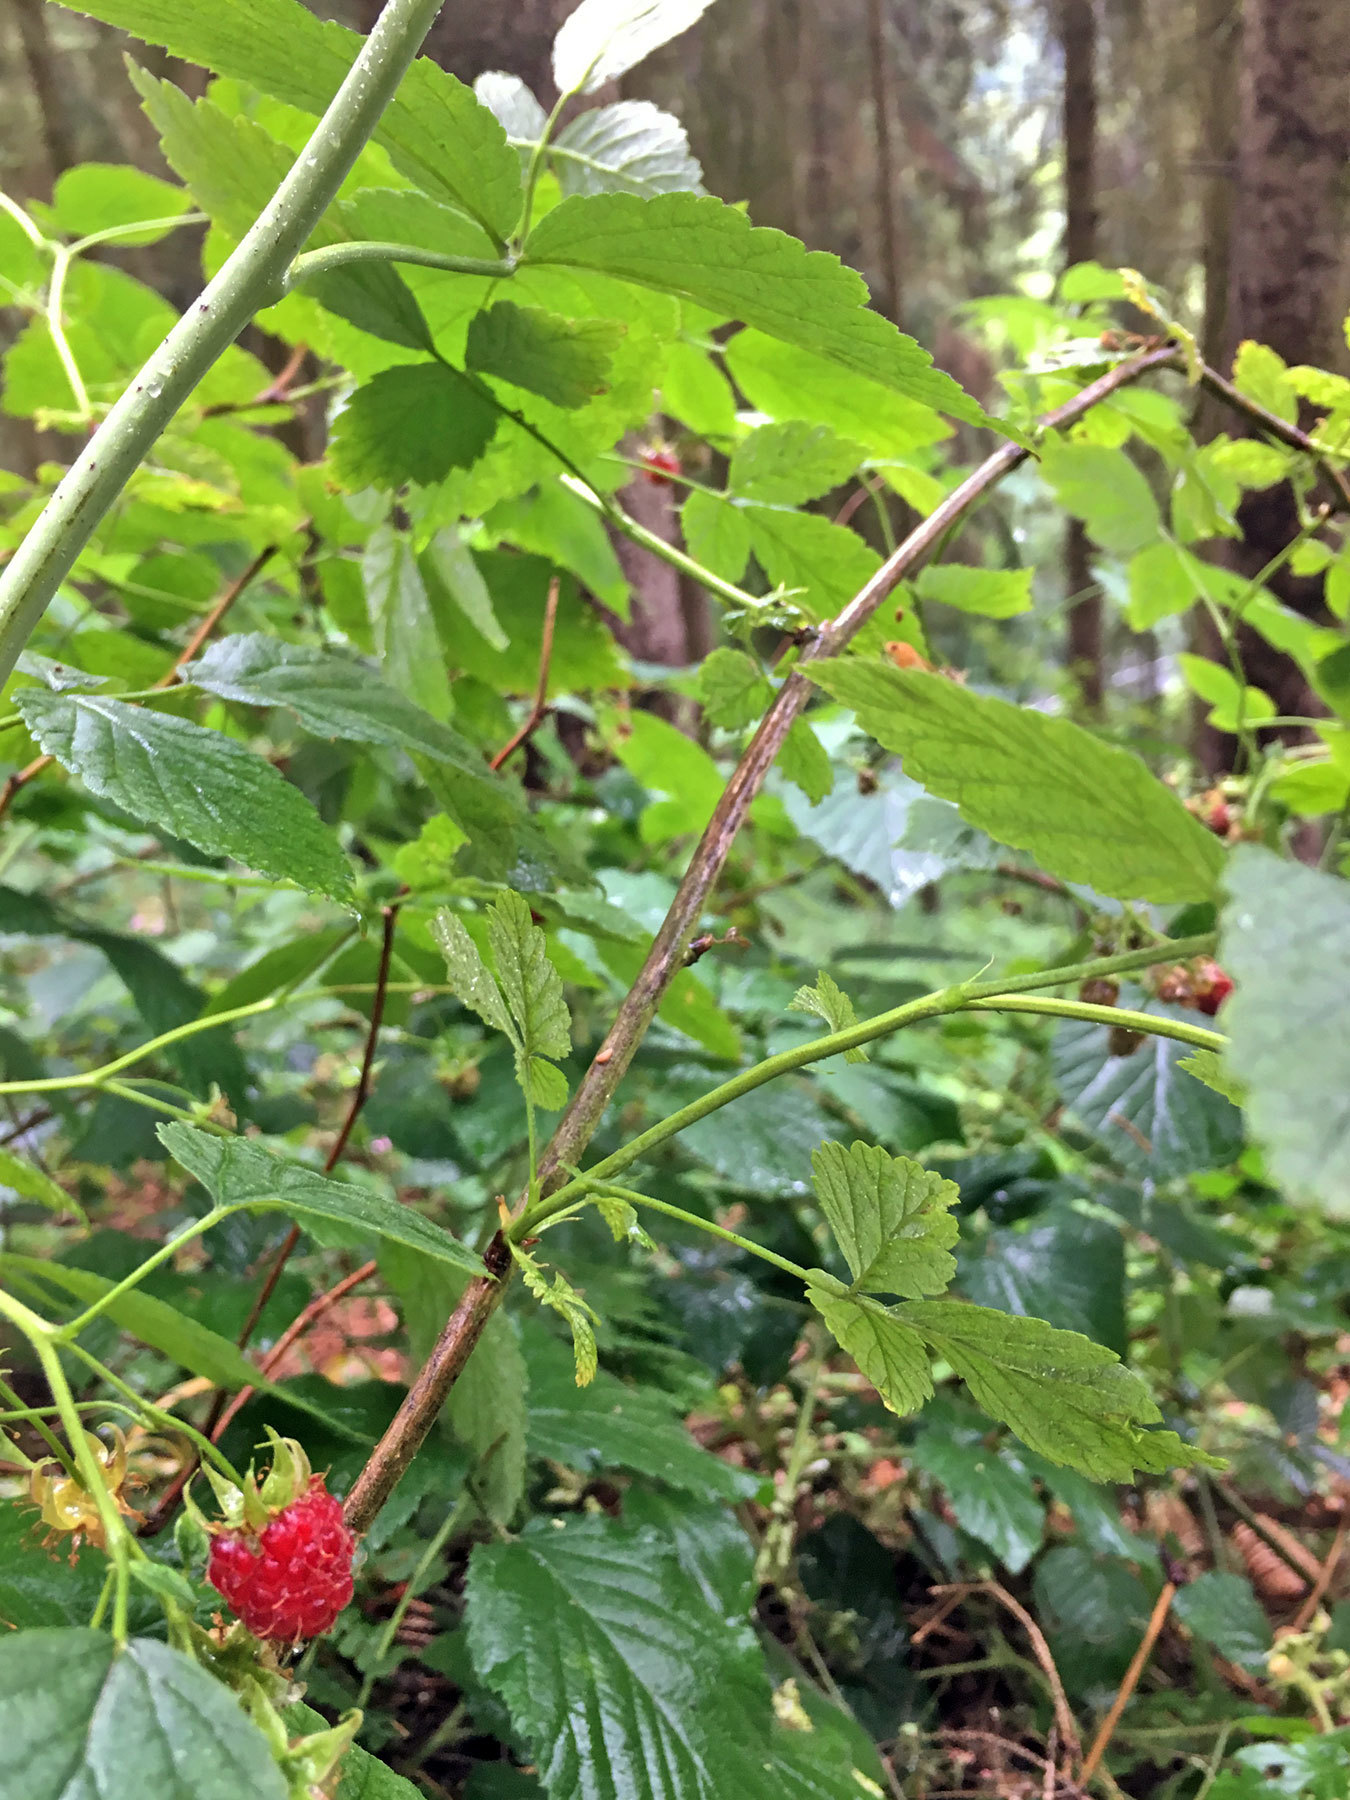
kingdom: Plantae
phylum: Tracheophyta
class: Magnoliopsida
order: Rosales
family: Rosaceae
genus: Rubus
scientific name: Rubus idaeus
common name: Raspberry
